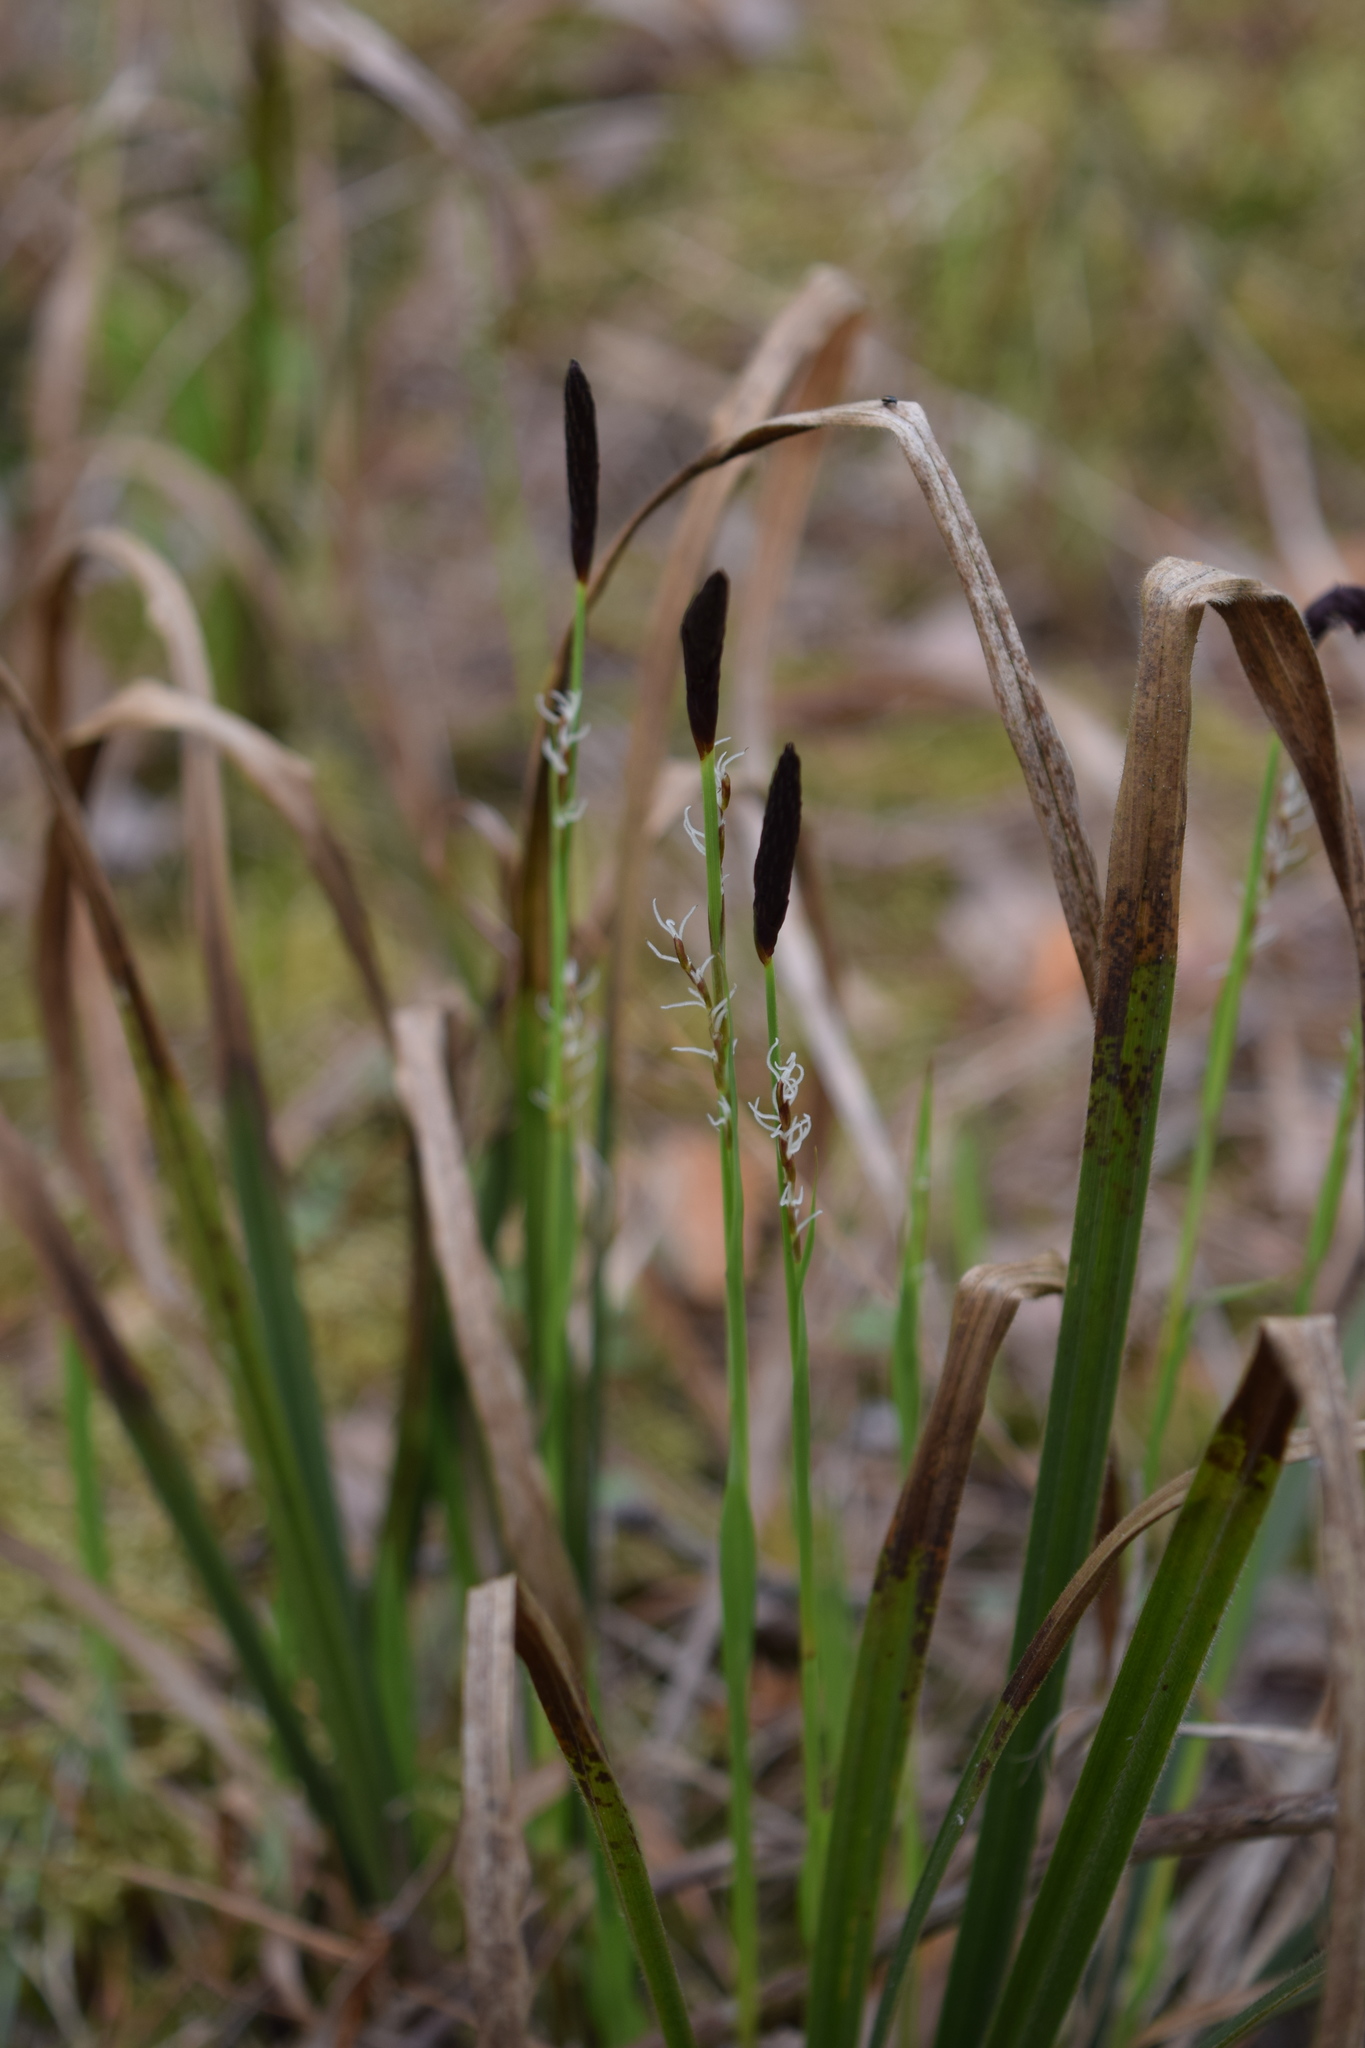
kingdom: Plantae
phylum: Tracheophyta
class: Liliopsida
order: Poales
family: Cyperaceae
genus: Carex
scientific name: Carex pilosa
